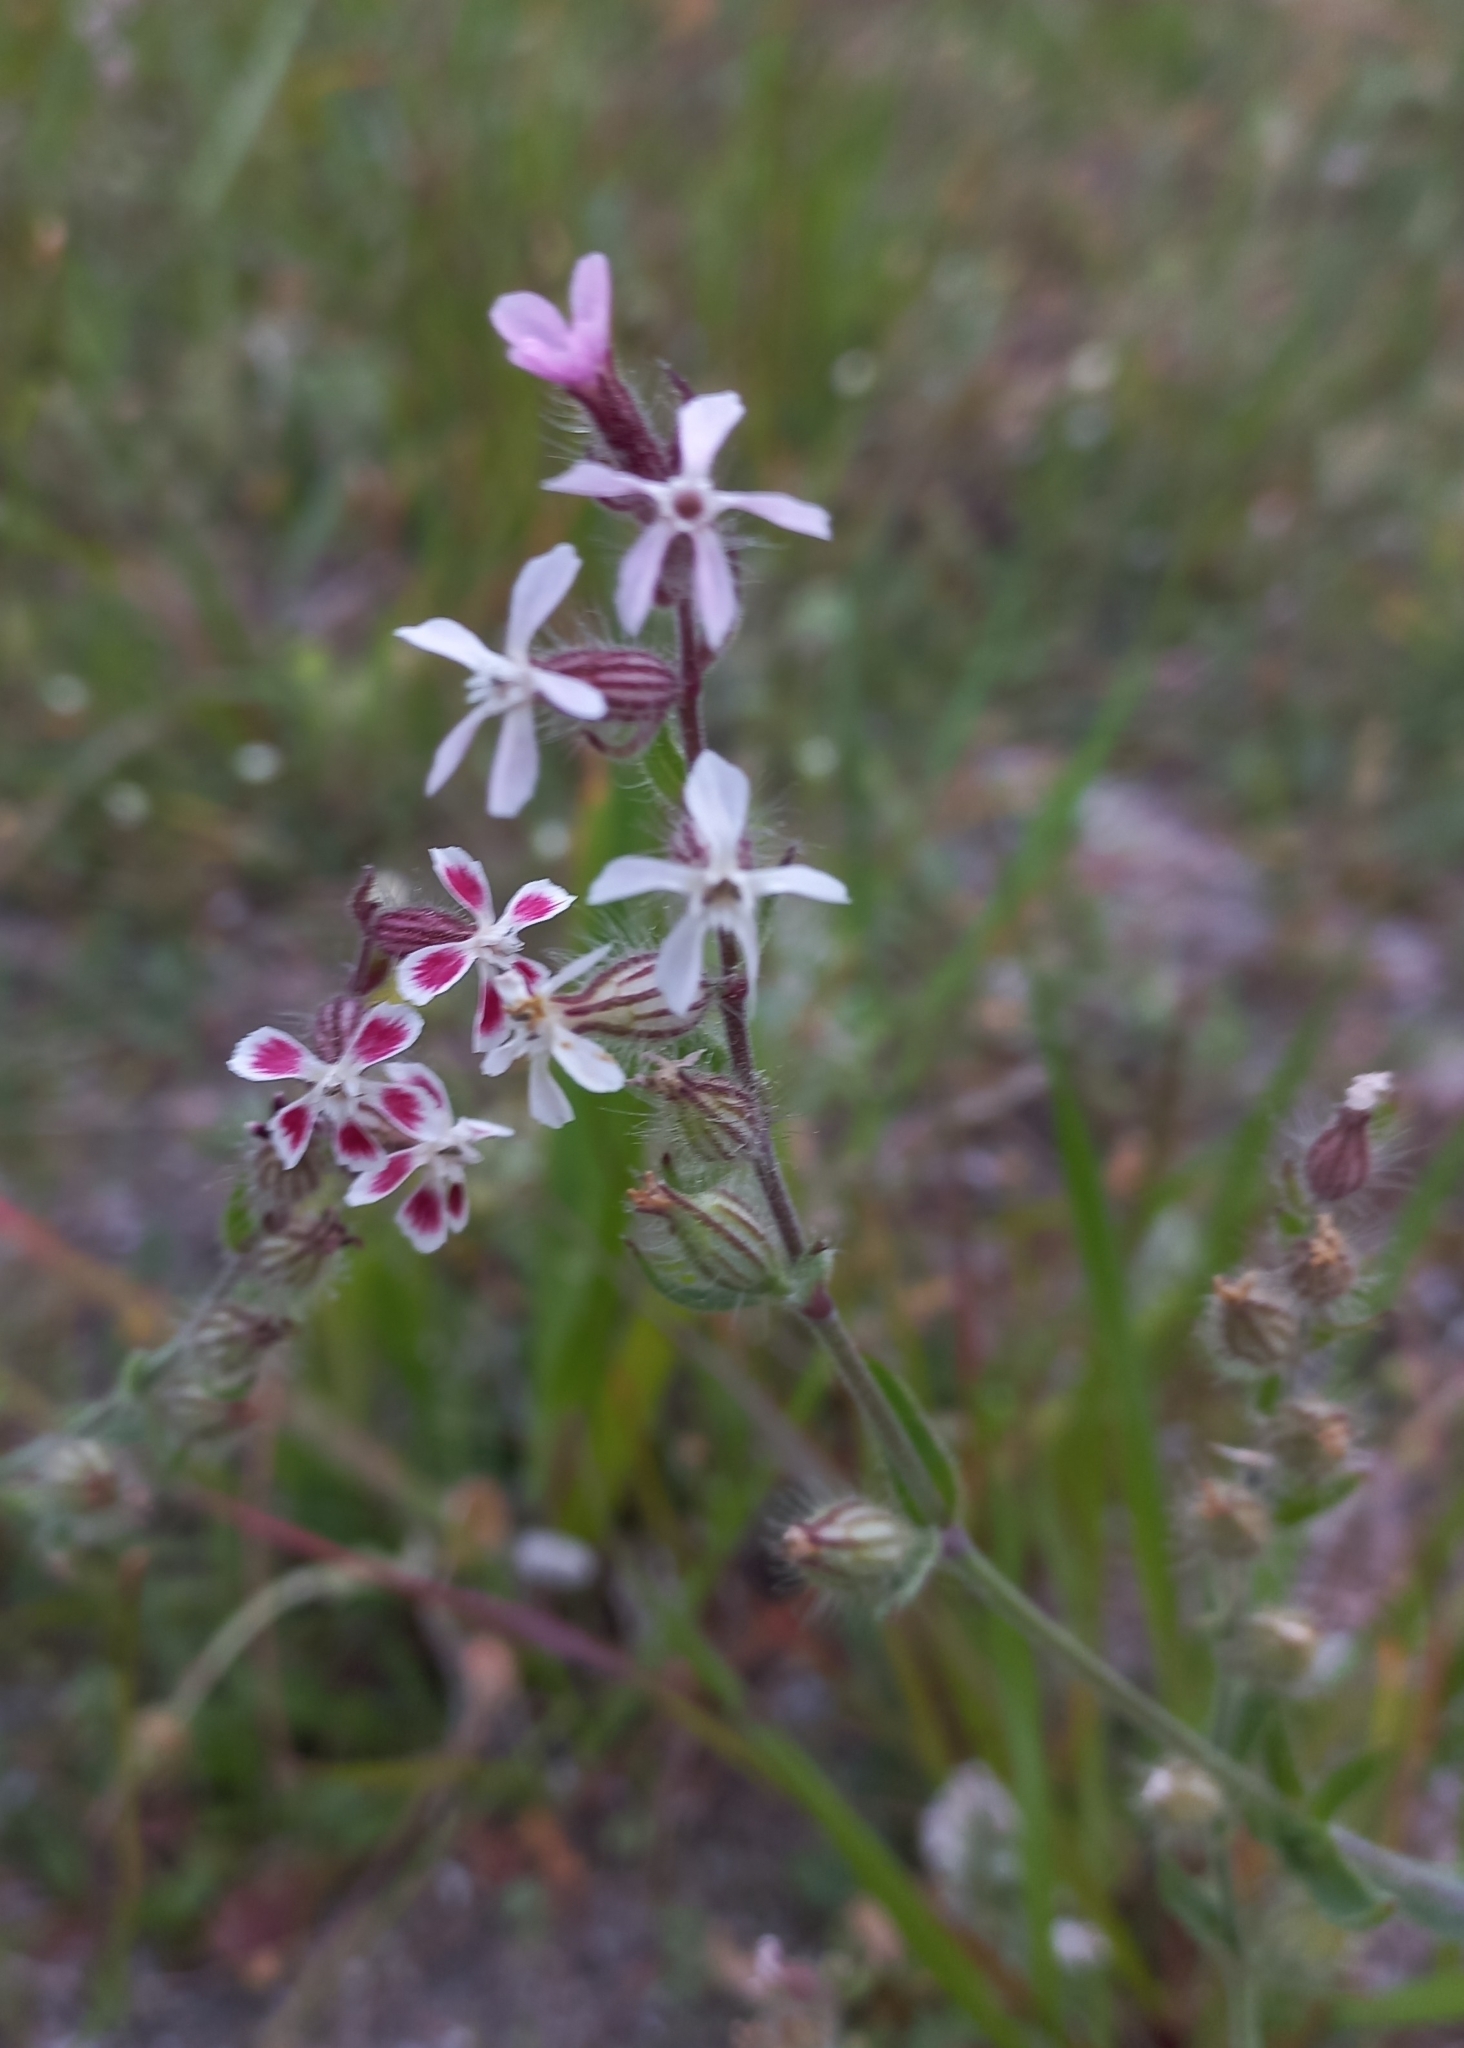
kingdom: Plantae
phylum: Tracheophyta
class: Magnoliopsida
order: Caryophyllales
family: Caryophyllaceae
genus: Silene
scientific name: Silene gallica
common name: Small-flowered catchfly
